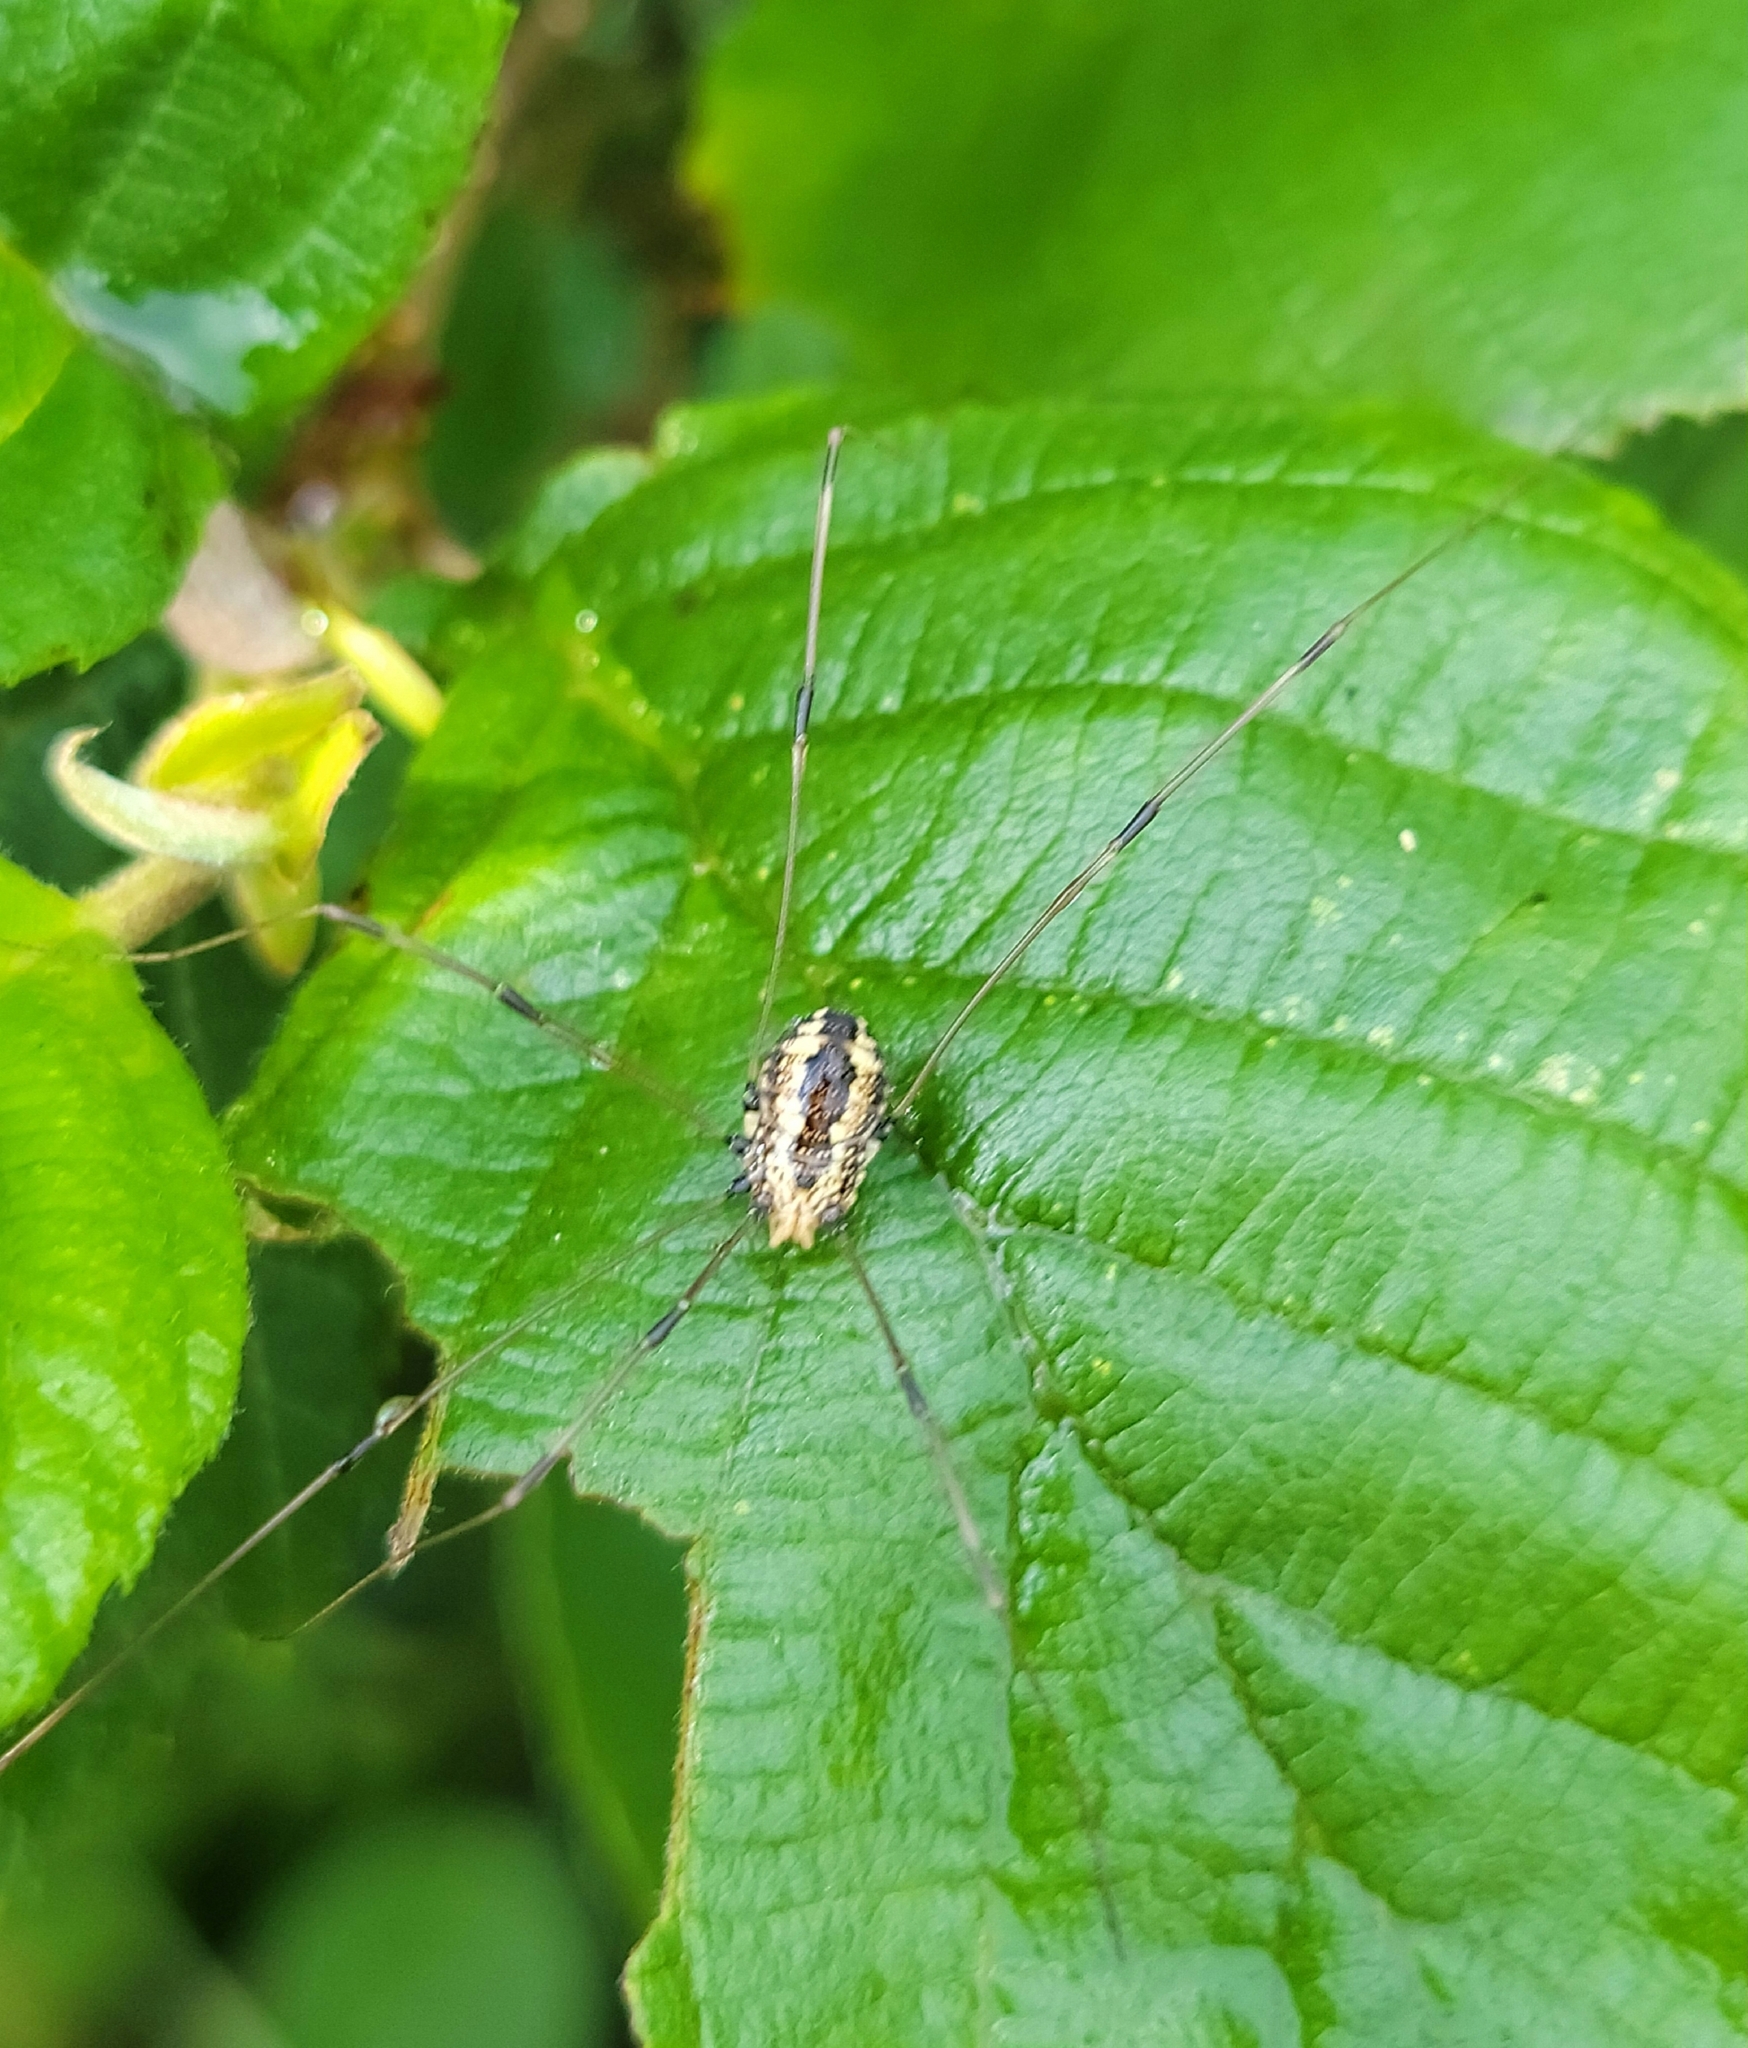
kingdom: Animalia
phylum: Arthropoda
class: Arachnida
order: Opiliones
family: Sclerosomatidae
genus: Leiobunum
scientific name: Leiobunum vittatum
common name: Eastern harvestman
